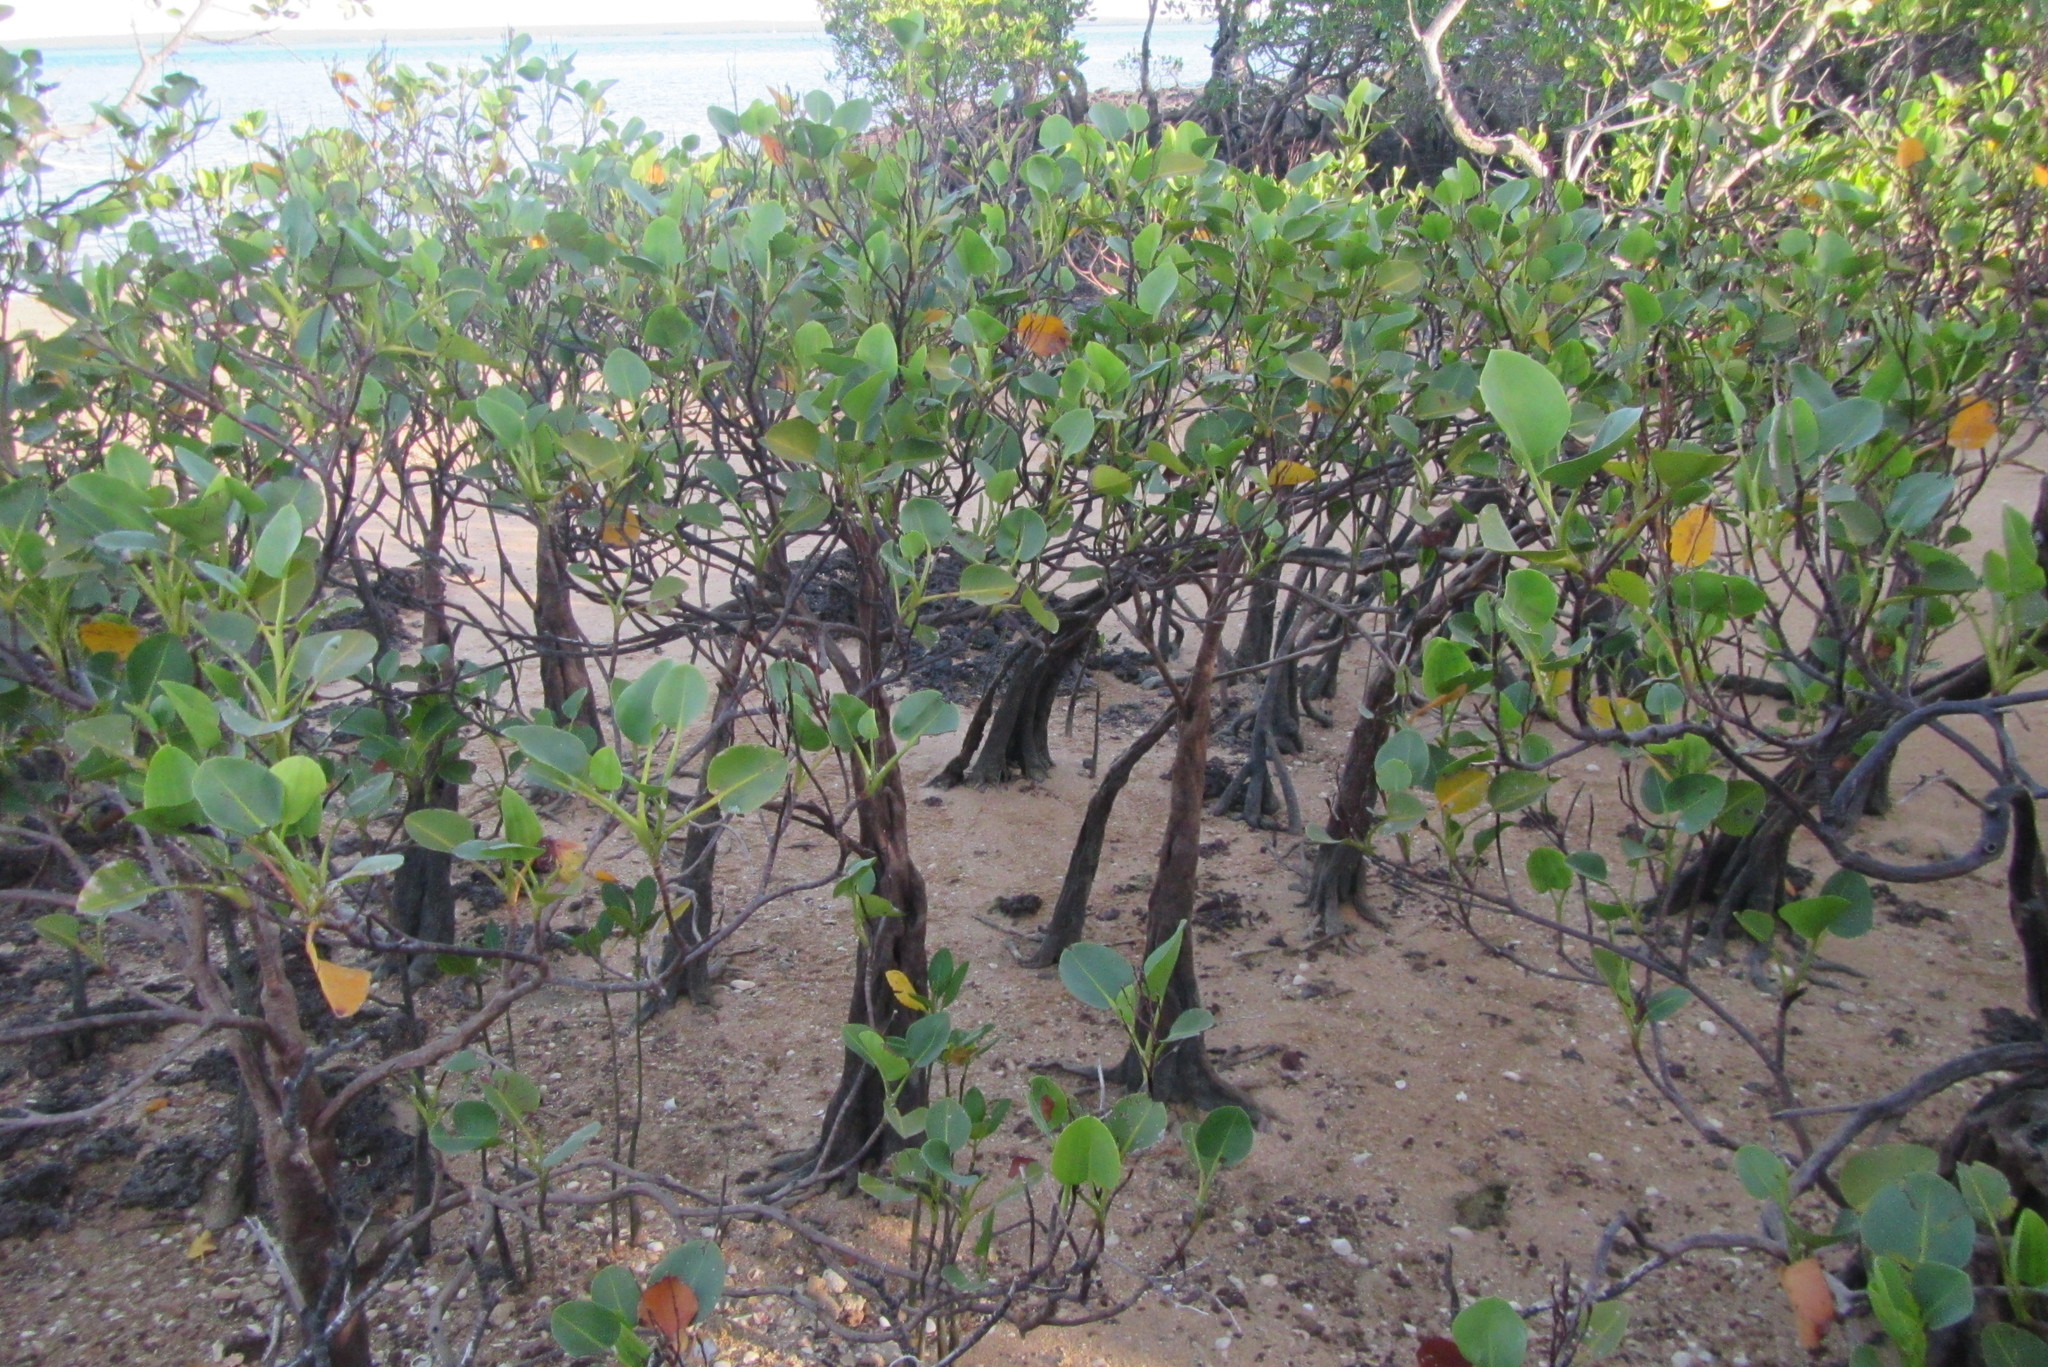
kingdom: Plantae
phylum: Tracheophyta
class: Magnoliopsida
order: Caryophyllales
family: Plumbaginaceae
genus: Aegialitis
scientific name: Aegialitis annulata
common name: Club mangrove
